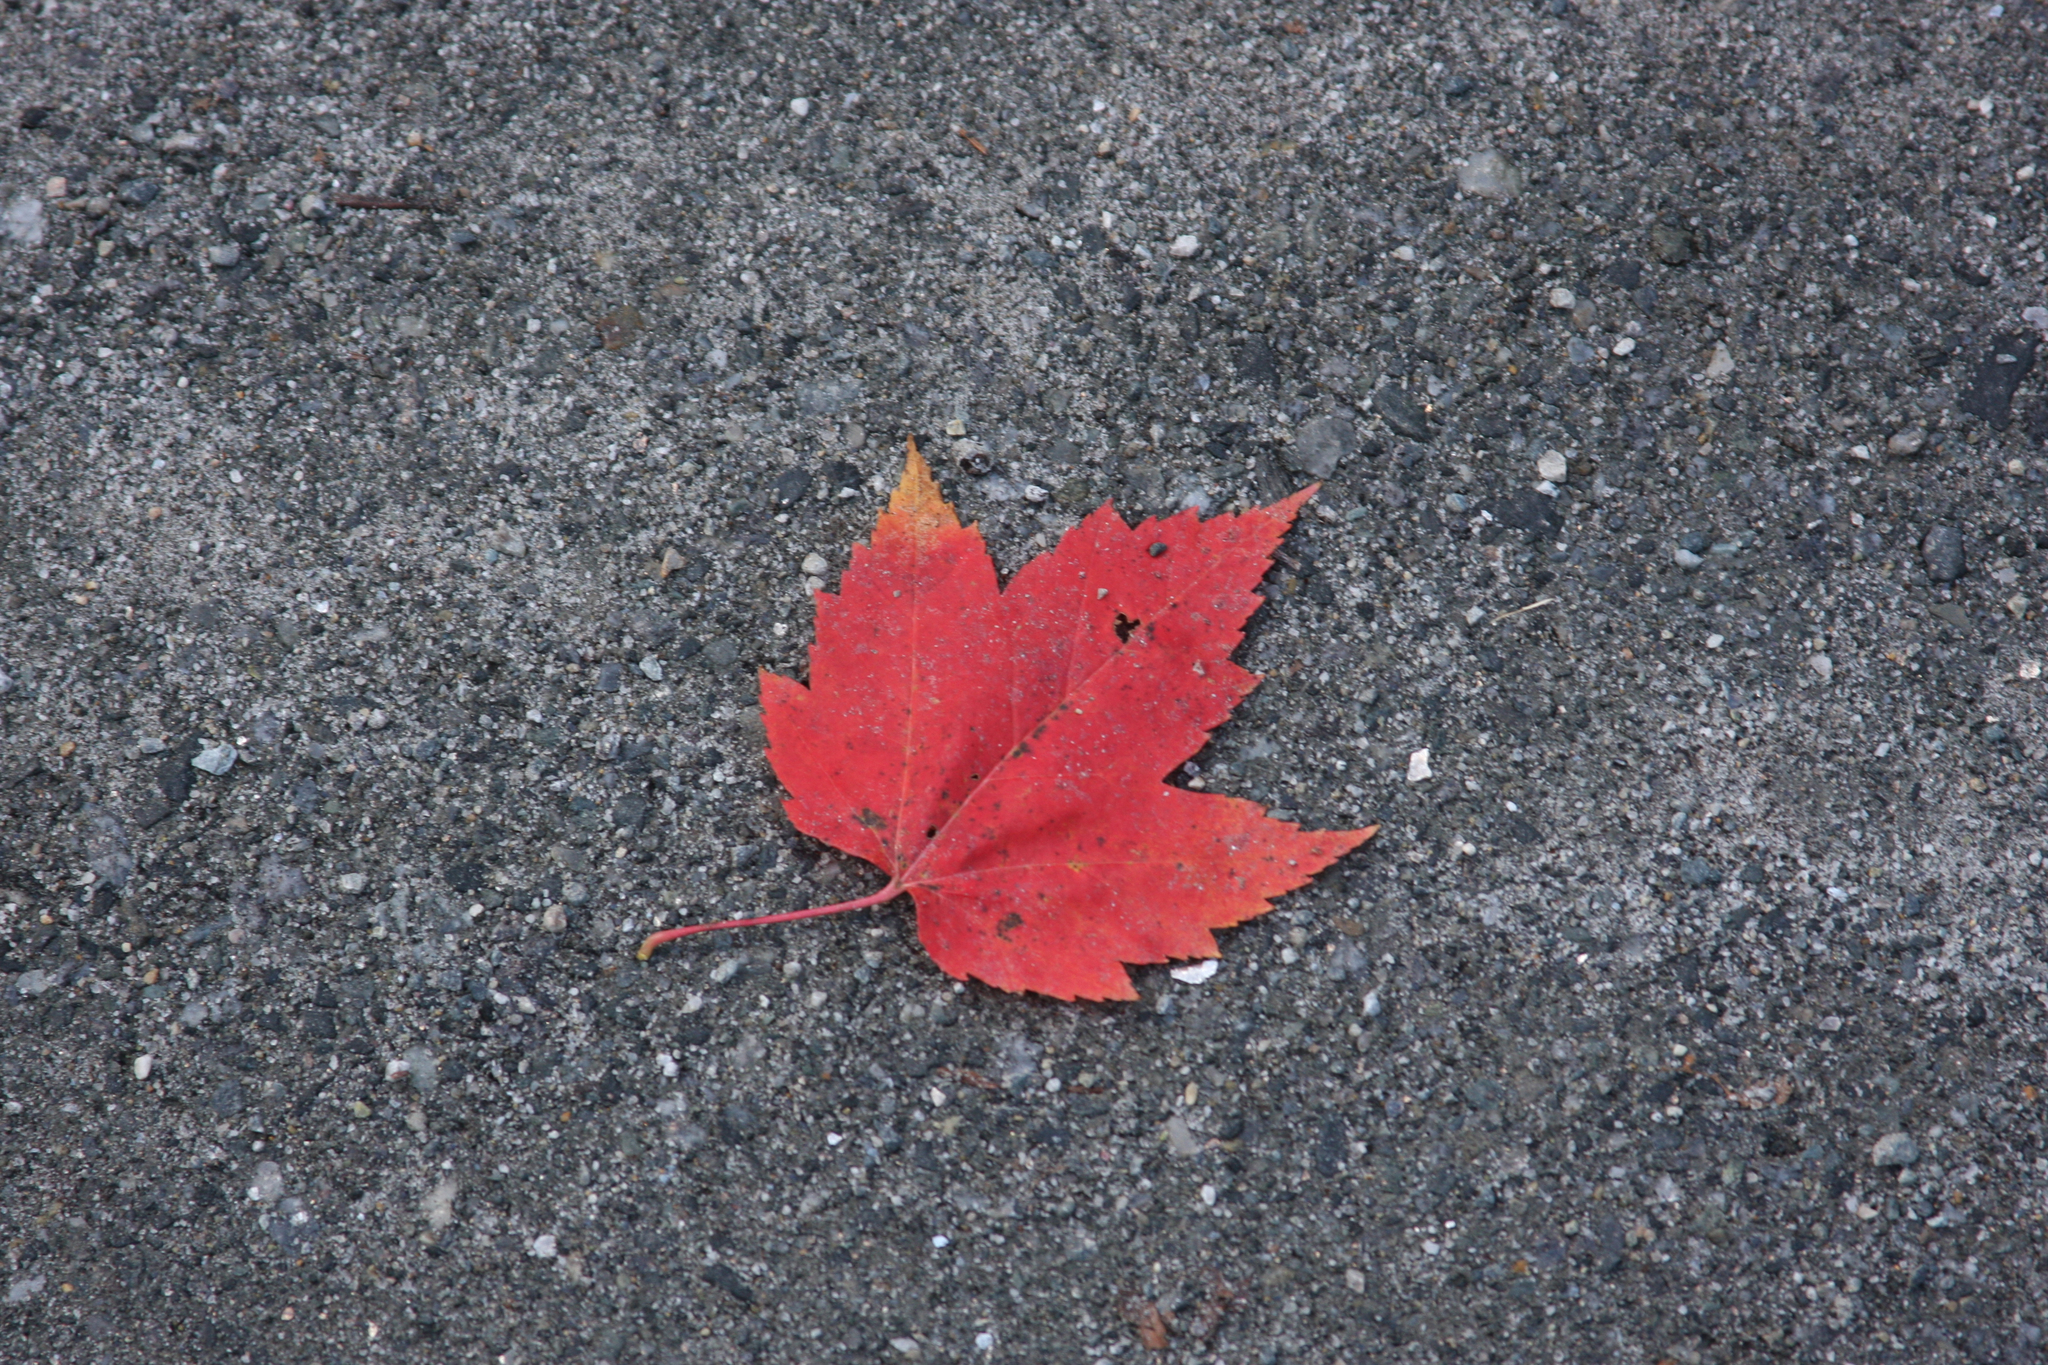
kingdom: Plantae
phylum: Tracheophyta
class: Magnoliopsida
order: Sapindales
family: Sapindaceae
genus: Acer
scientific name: Acer rubrum
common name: Red maple
